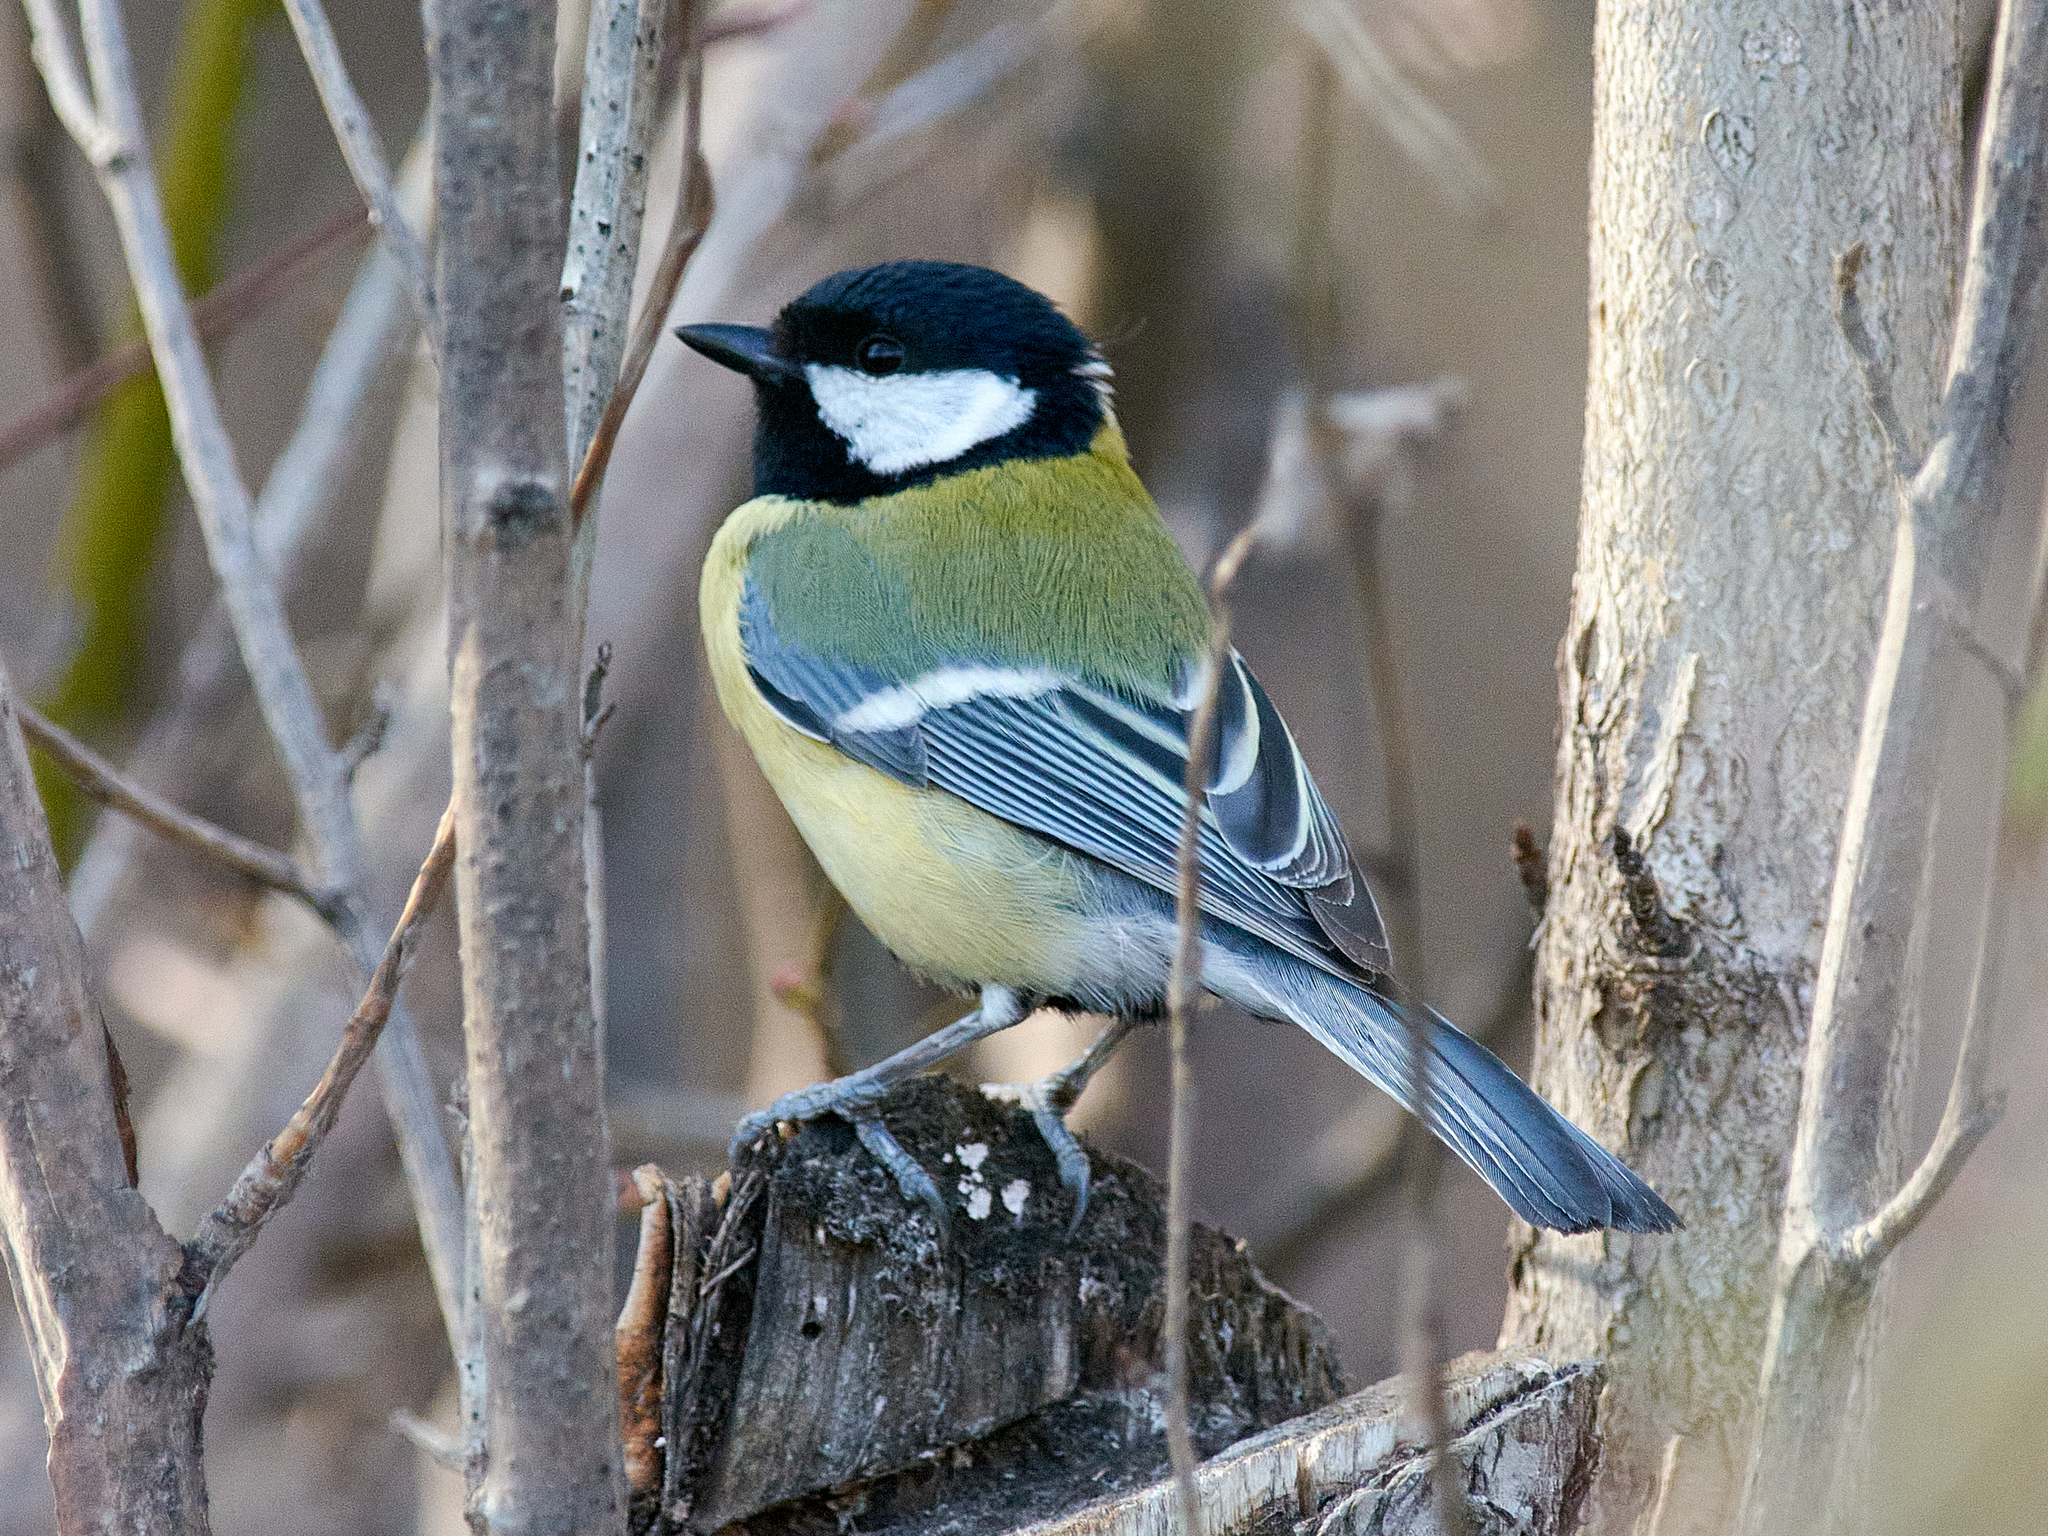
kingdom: Animalia
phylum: Chordata
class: Aves
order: Passeriformes
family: Paridae
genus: Parus
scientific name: Parus major
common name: Great tit
